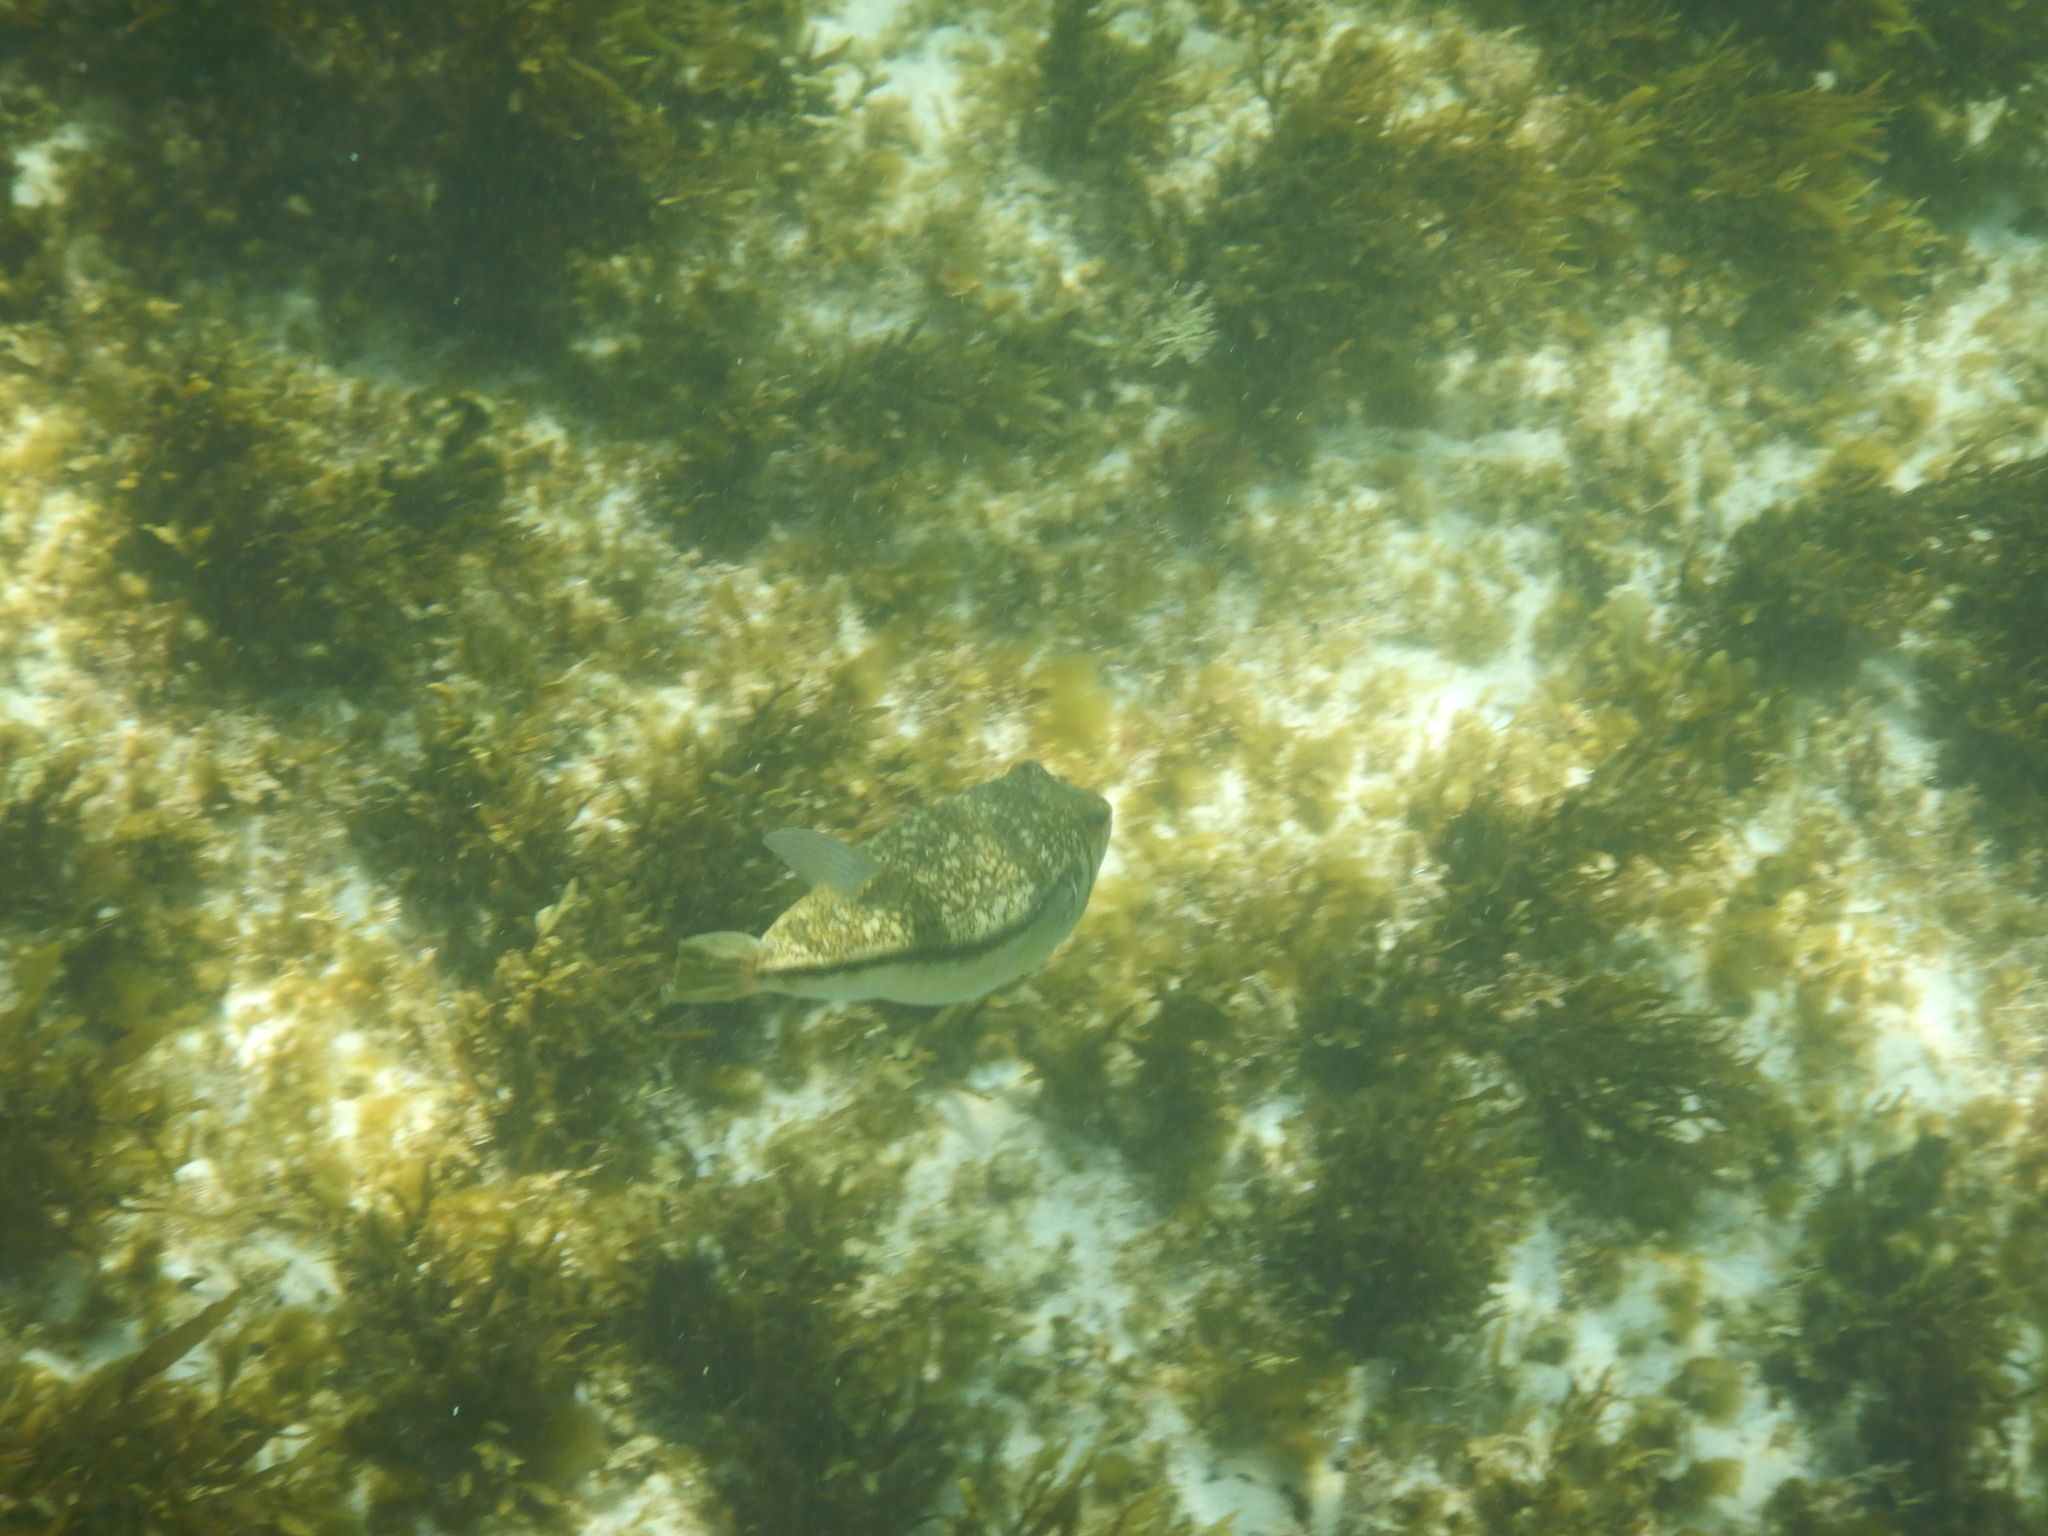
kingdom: Animalia
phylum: Chordata
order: Tetraodontiformes
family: Tetraodontidae
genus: Torquigener
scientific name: Torquigener pleurogramma
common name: Banded toadfish
